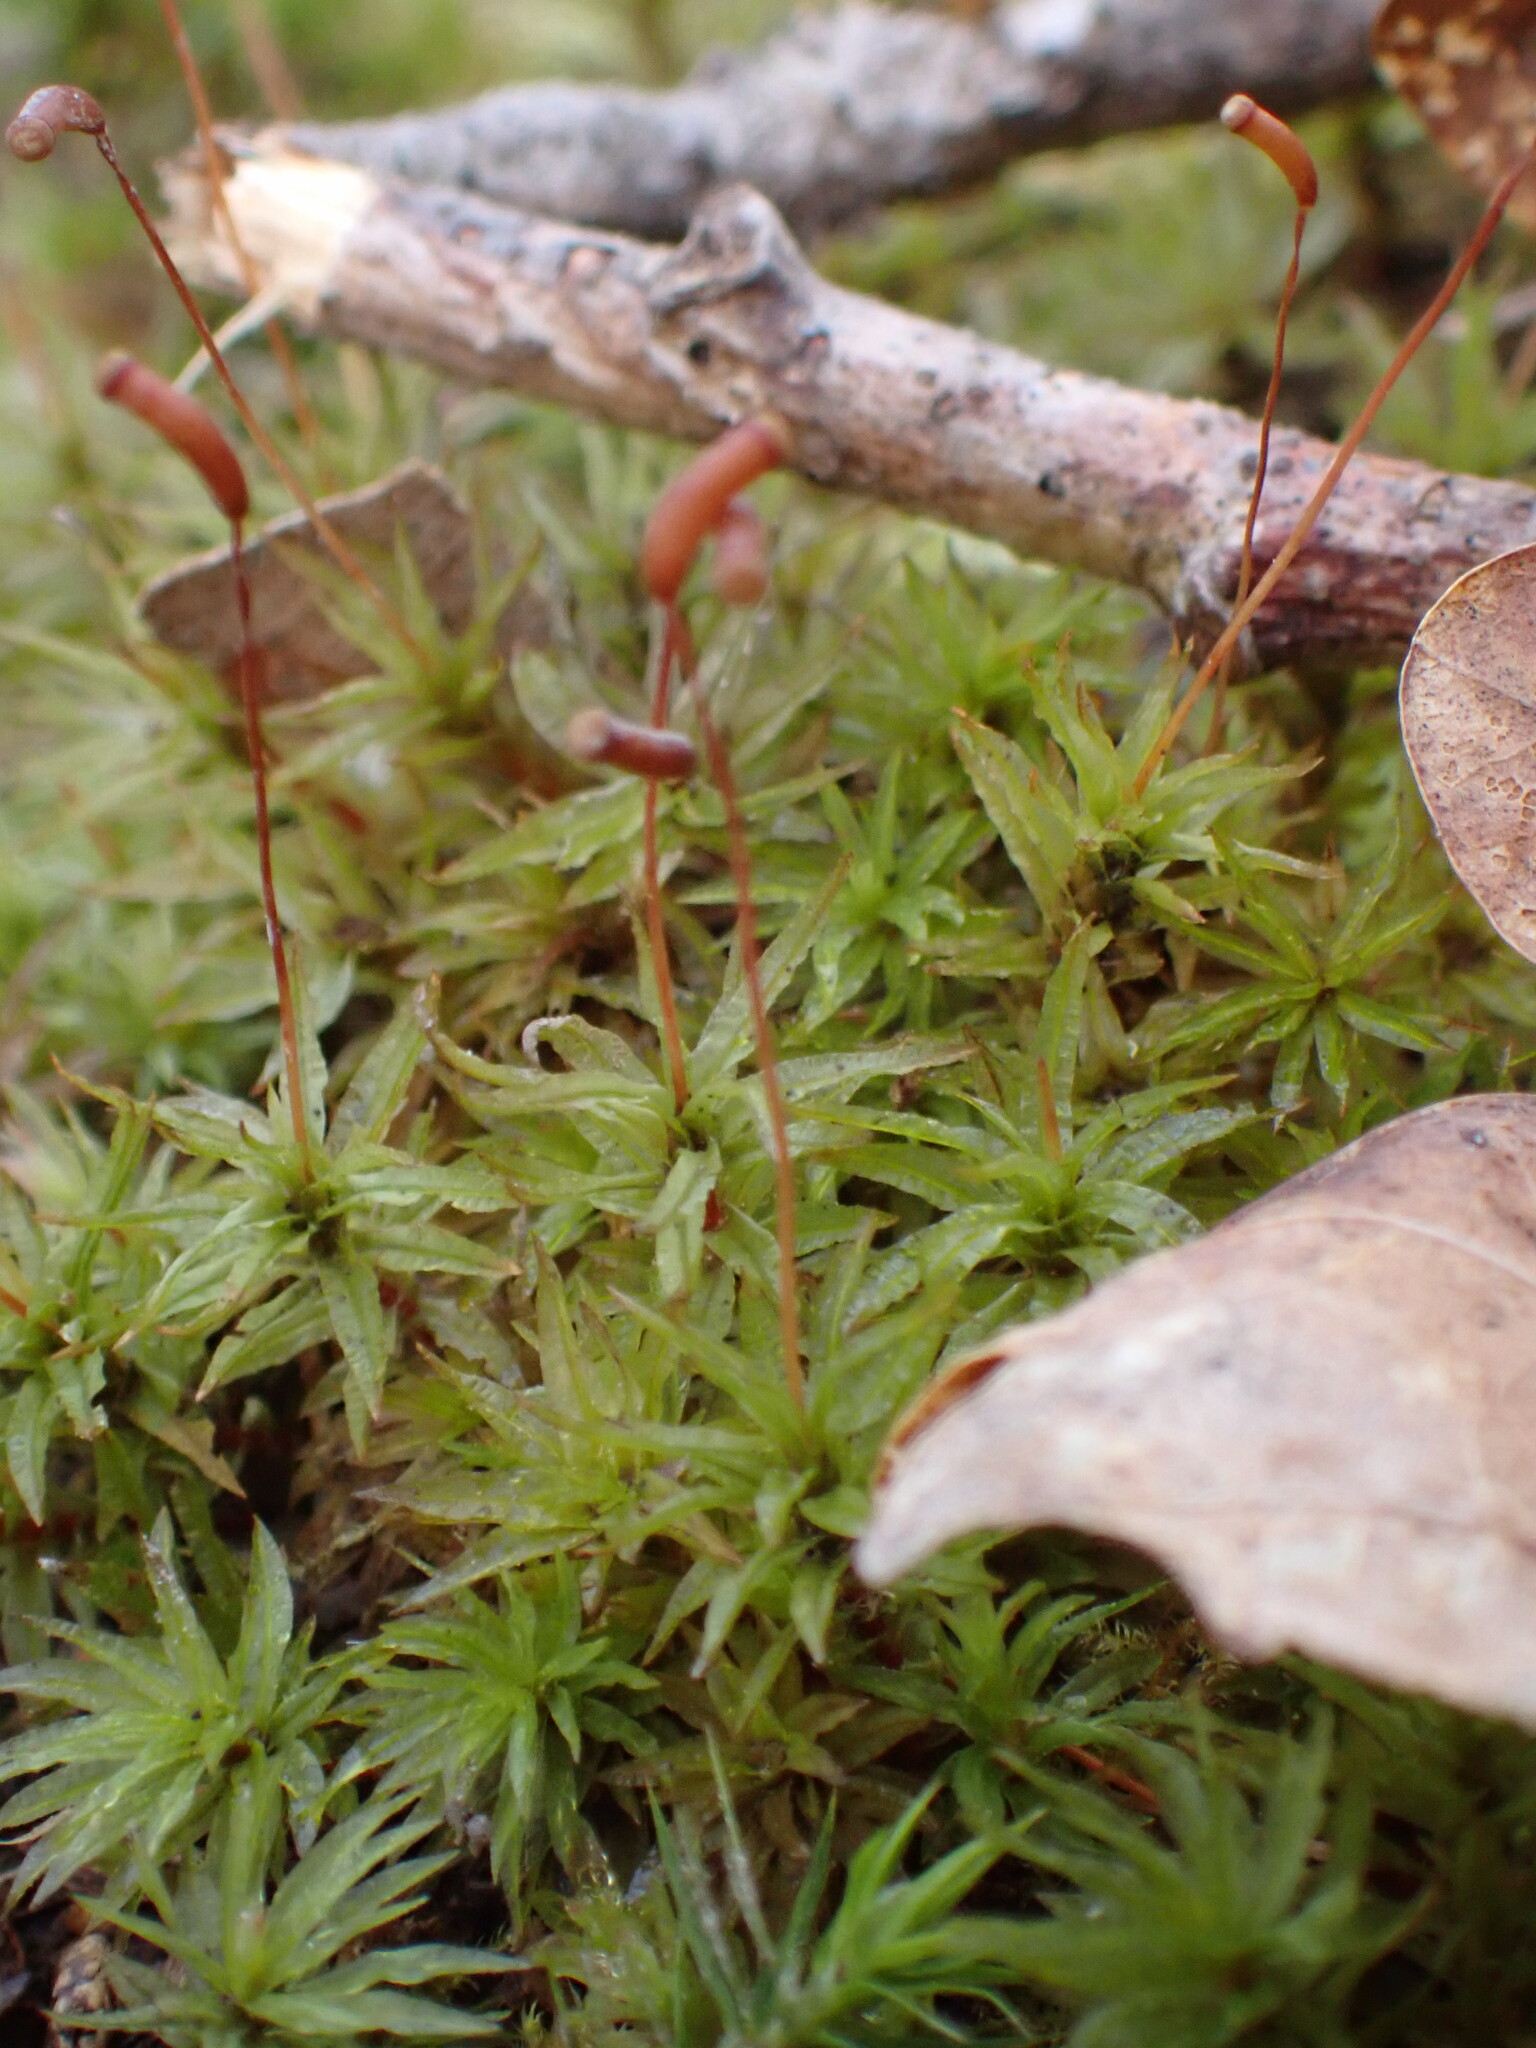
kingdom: Plantae
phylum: Bryophyta
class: Polytrichopsida
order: Polytrichales
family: Polytrichaceae
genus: Atrichum
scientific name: Atrichum undulatum
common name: Common smoothcap
